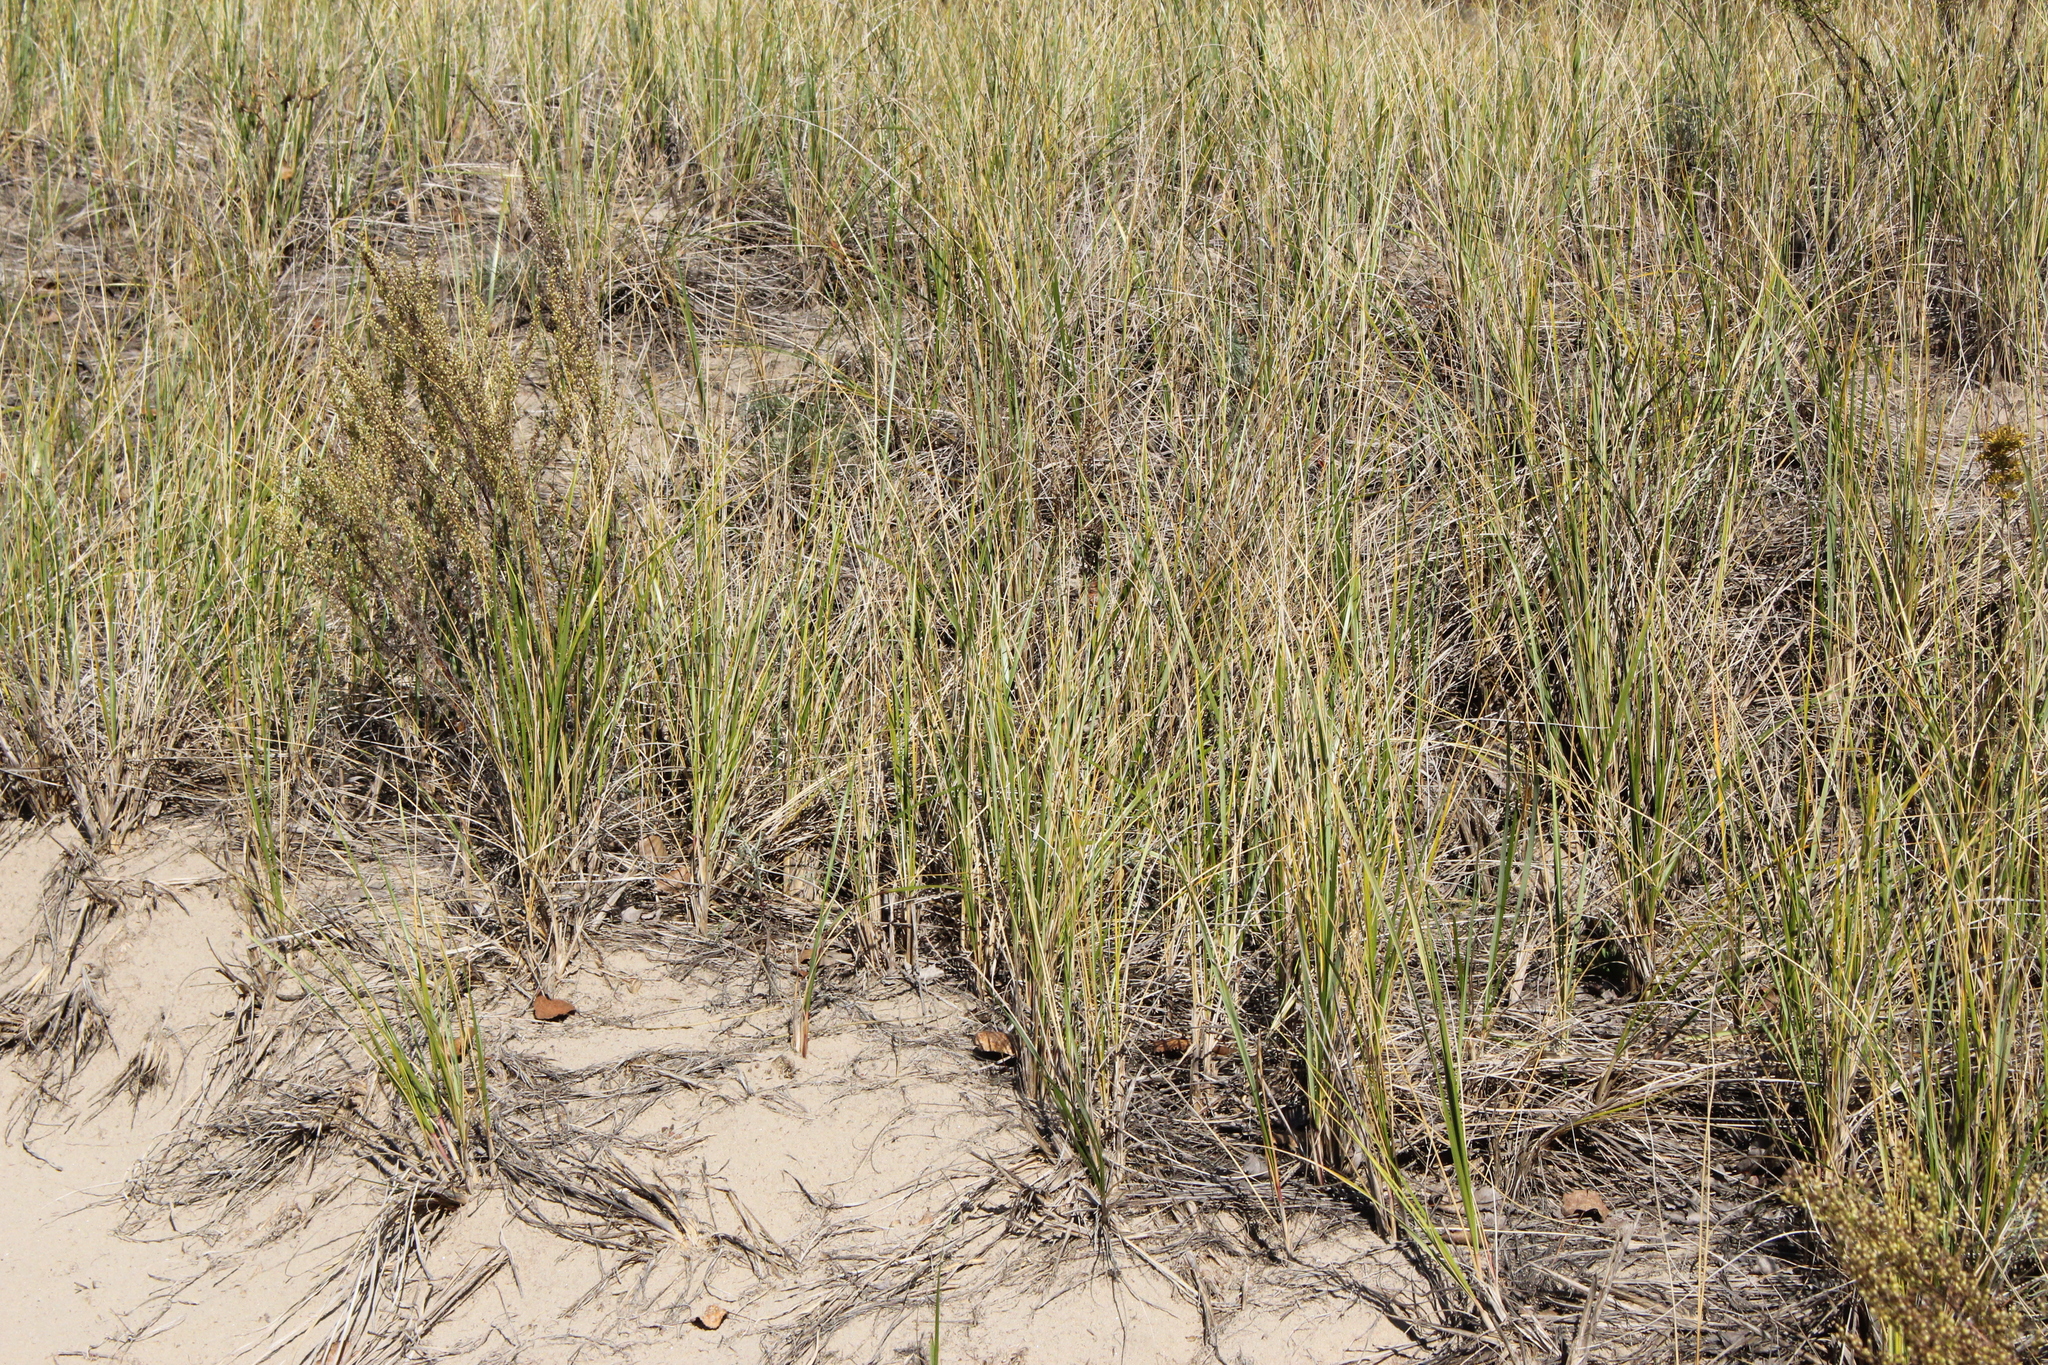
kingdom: Plantae
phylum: Tracheophyta
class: Liliopsida
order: Poales
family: Poaceae
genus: Calamagrostis
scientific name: Calamagrostis breviligulata
